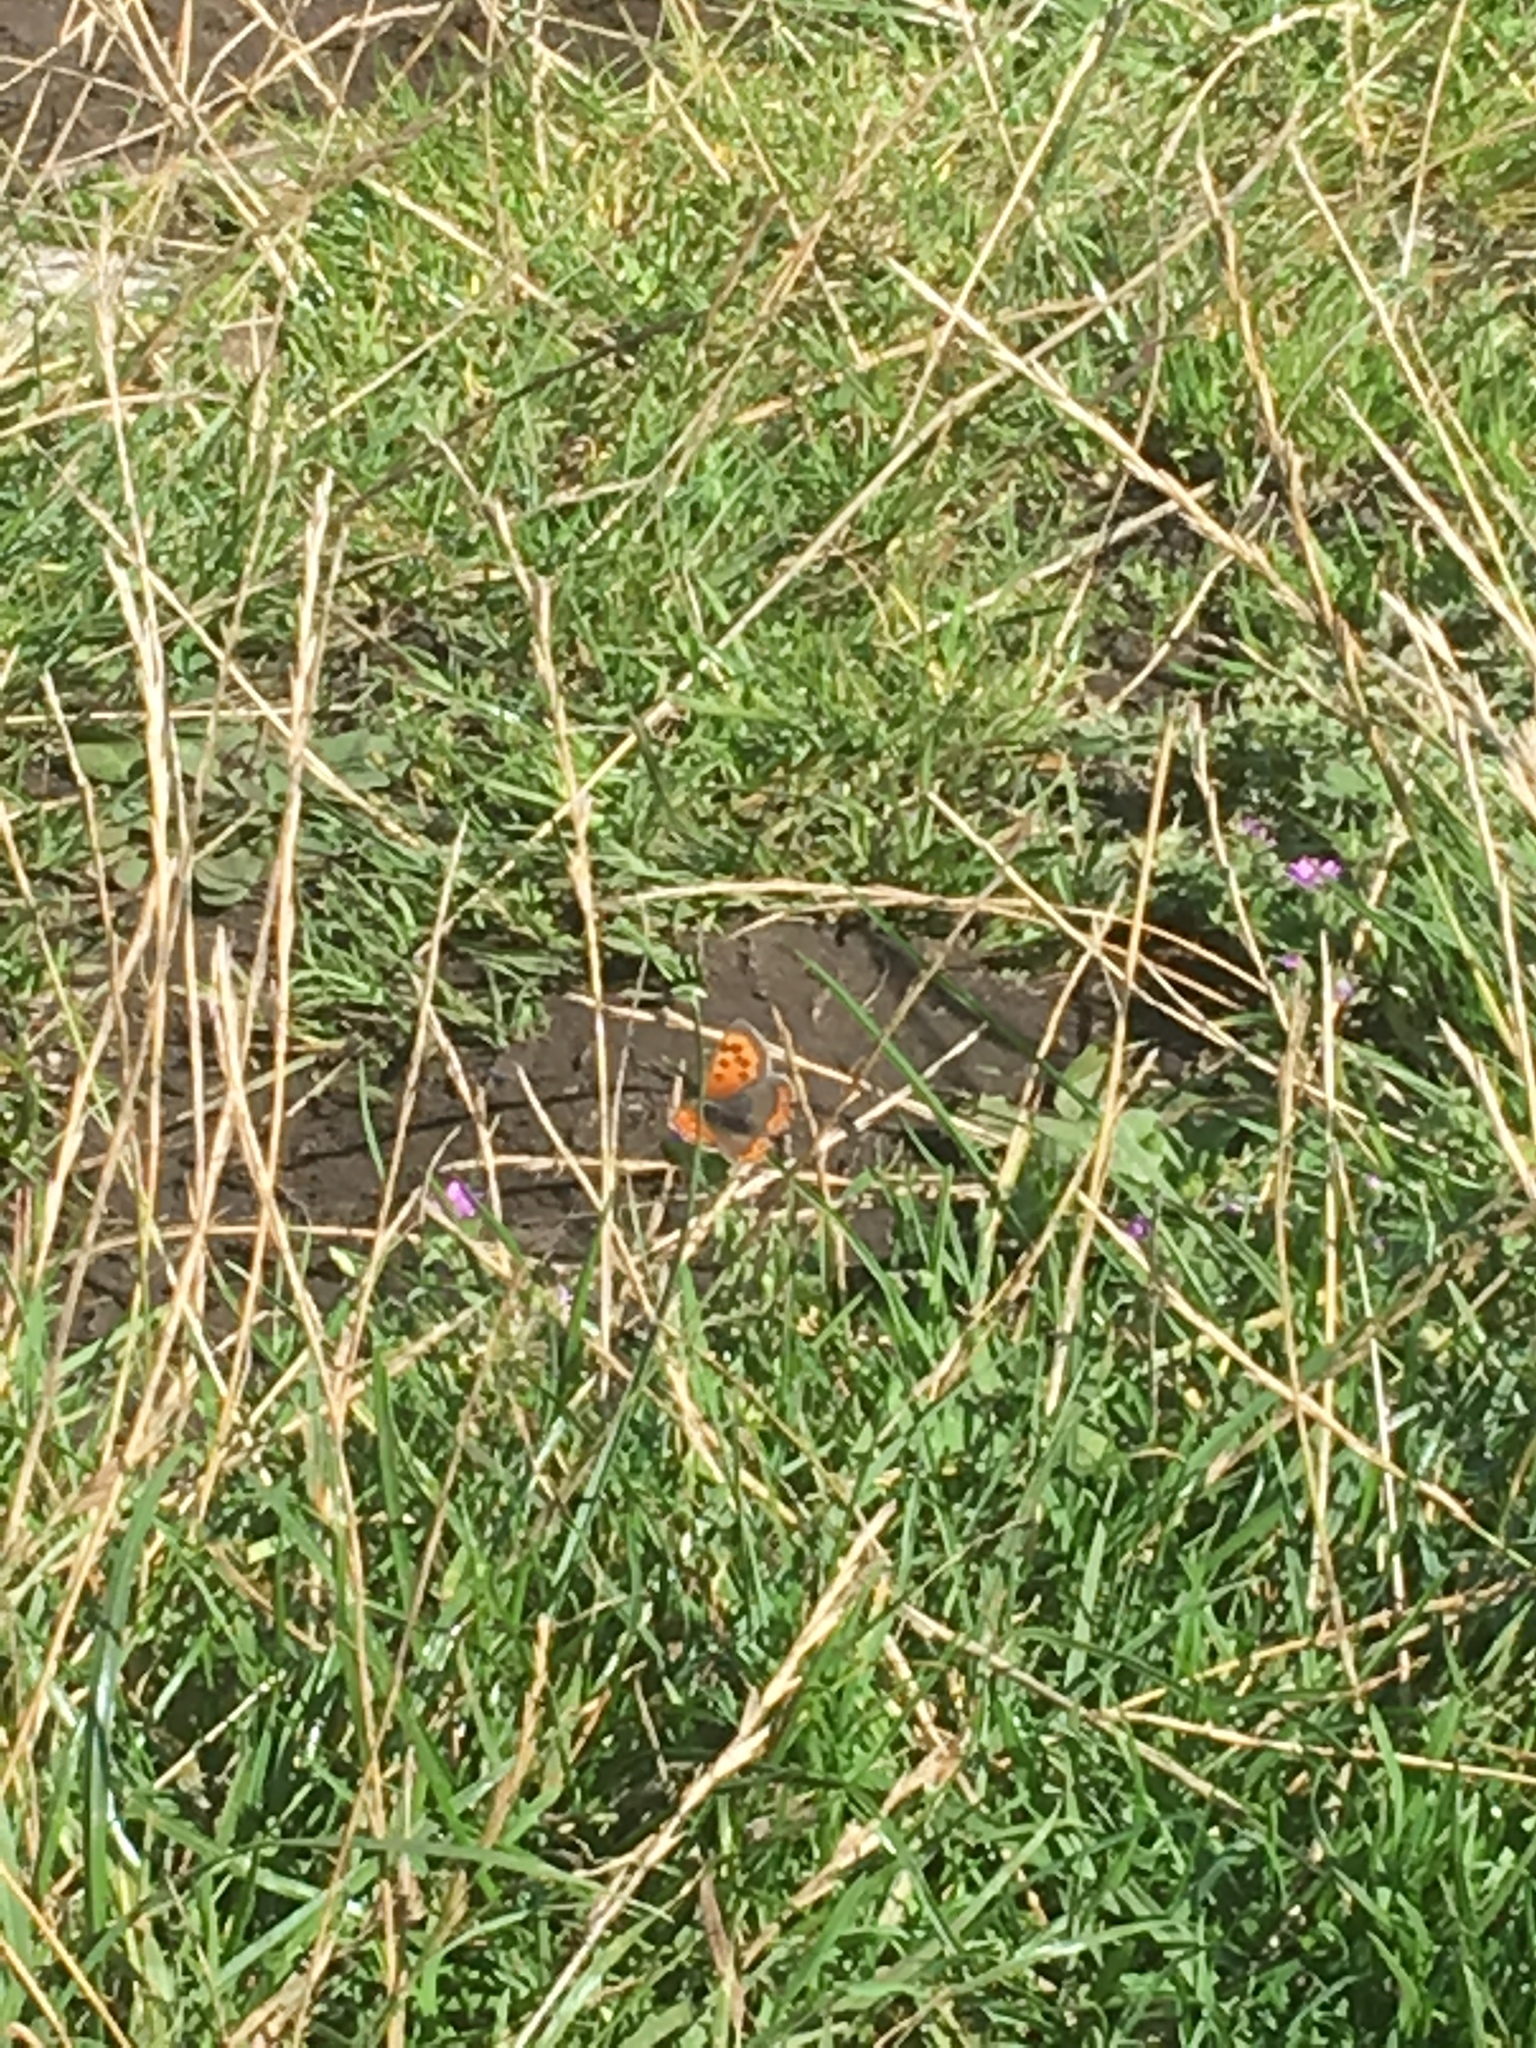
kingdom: Animalia
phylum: Arthropoda
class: Insecta
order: Lepidoptera
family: Lycaenidae
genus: Lycaena
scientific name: Lycaena phlaeas
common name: Small copper
